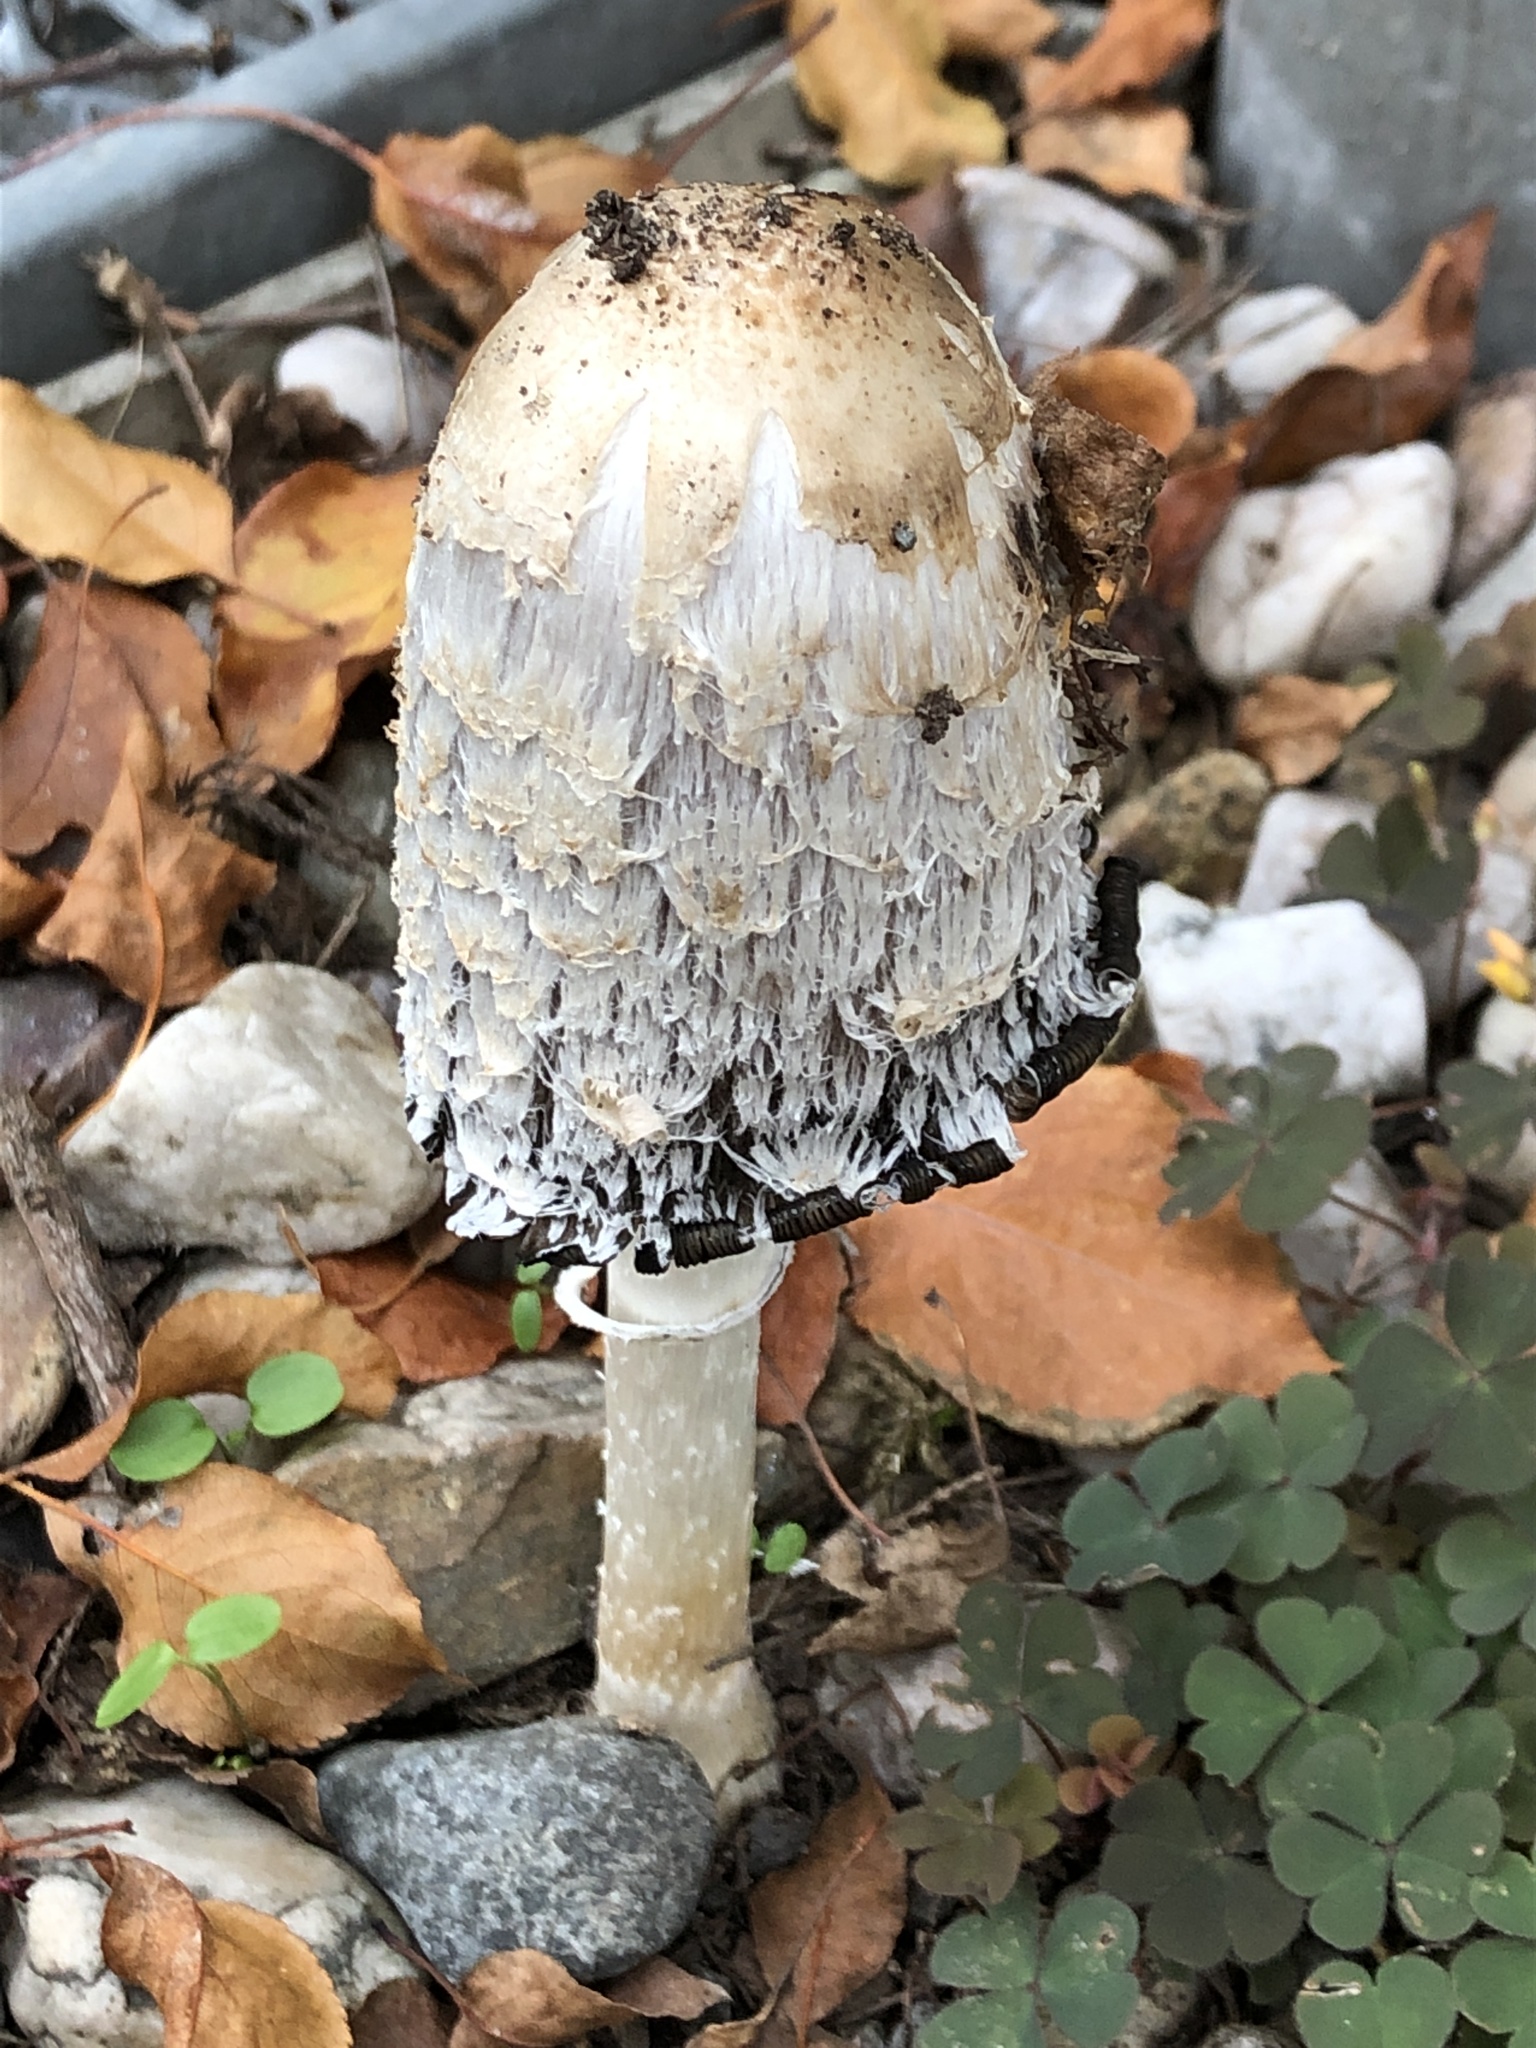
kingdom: Fungi
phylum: Basidiomycota
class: Agaricomycetes
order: Agaricales
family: Agaricaceae
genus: Coprinus
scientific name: Coprinus comatus
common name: Lawyer's wig
